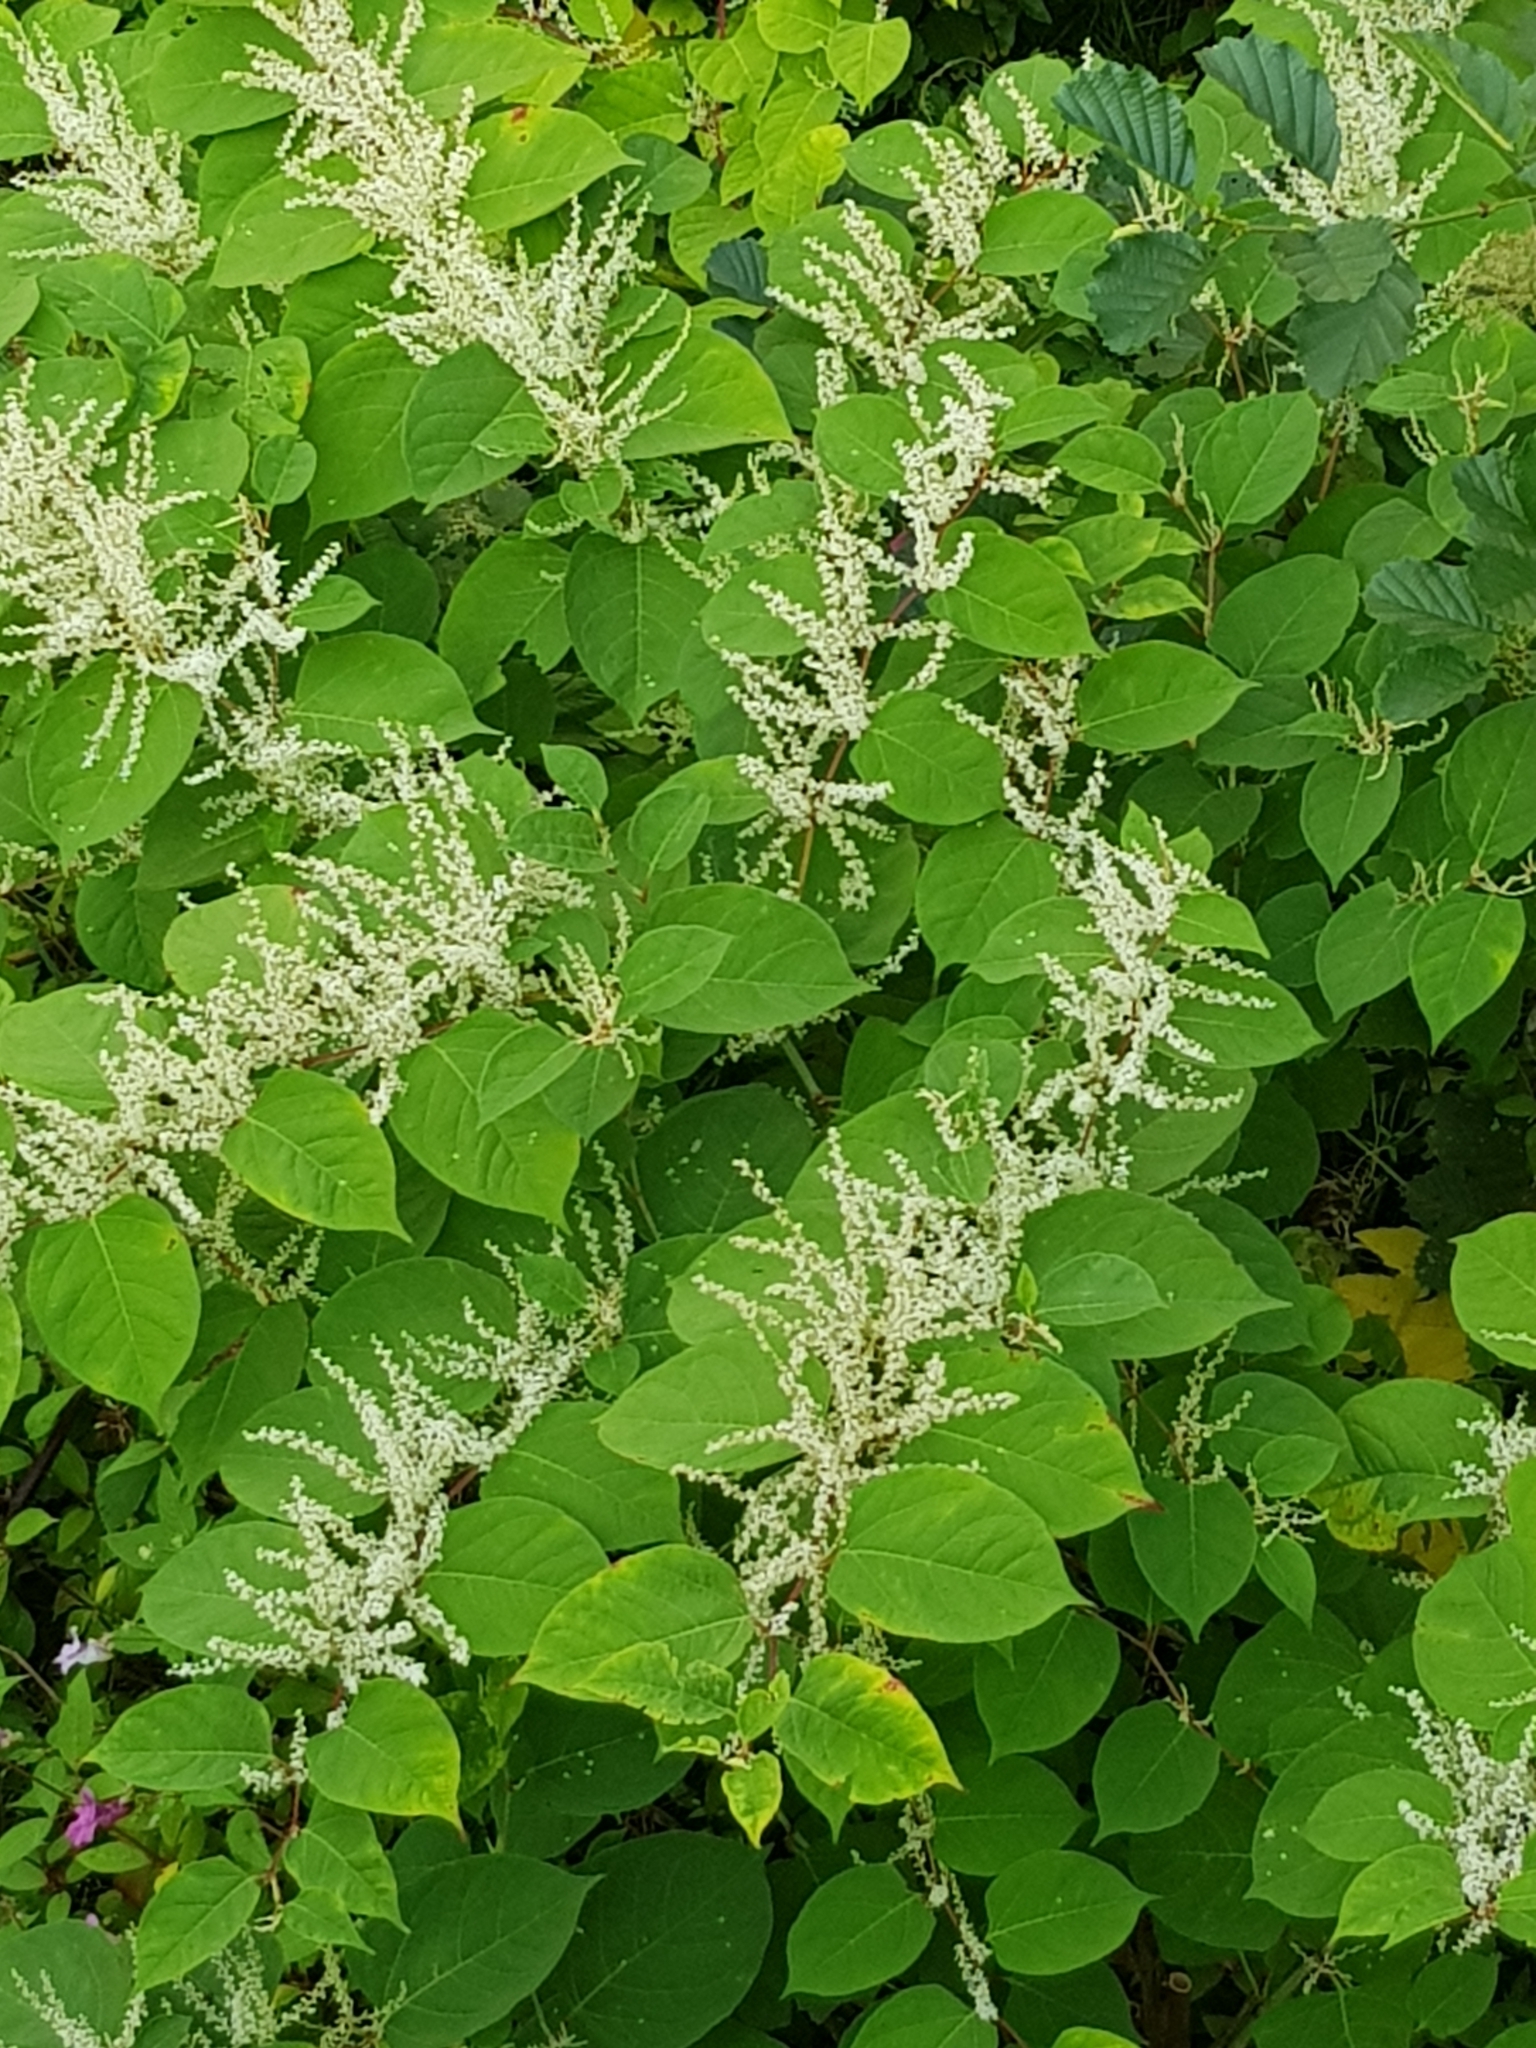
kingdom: Plantae
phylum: Tracheophyta
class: Magnoliopsida
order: Caryophyllales
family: Polygonaceae
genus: Reynoutria
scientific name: Reynoutria japonica
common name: Japanese knotweed
